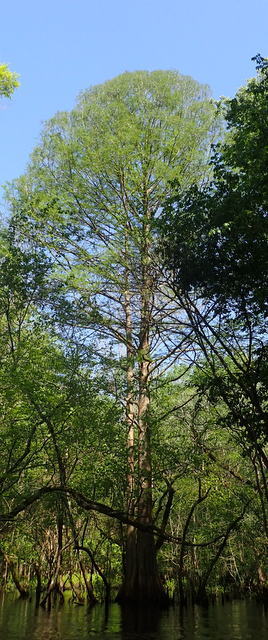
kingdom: Plantae
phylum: Tracheophyta
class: Pinopsida
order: Pinales
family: Cupressaceae
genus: Taxodium
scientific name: Taxodium distichum
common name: Bald cypress
